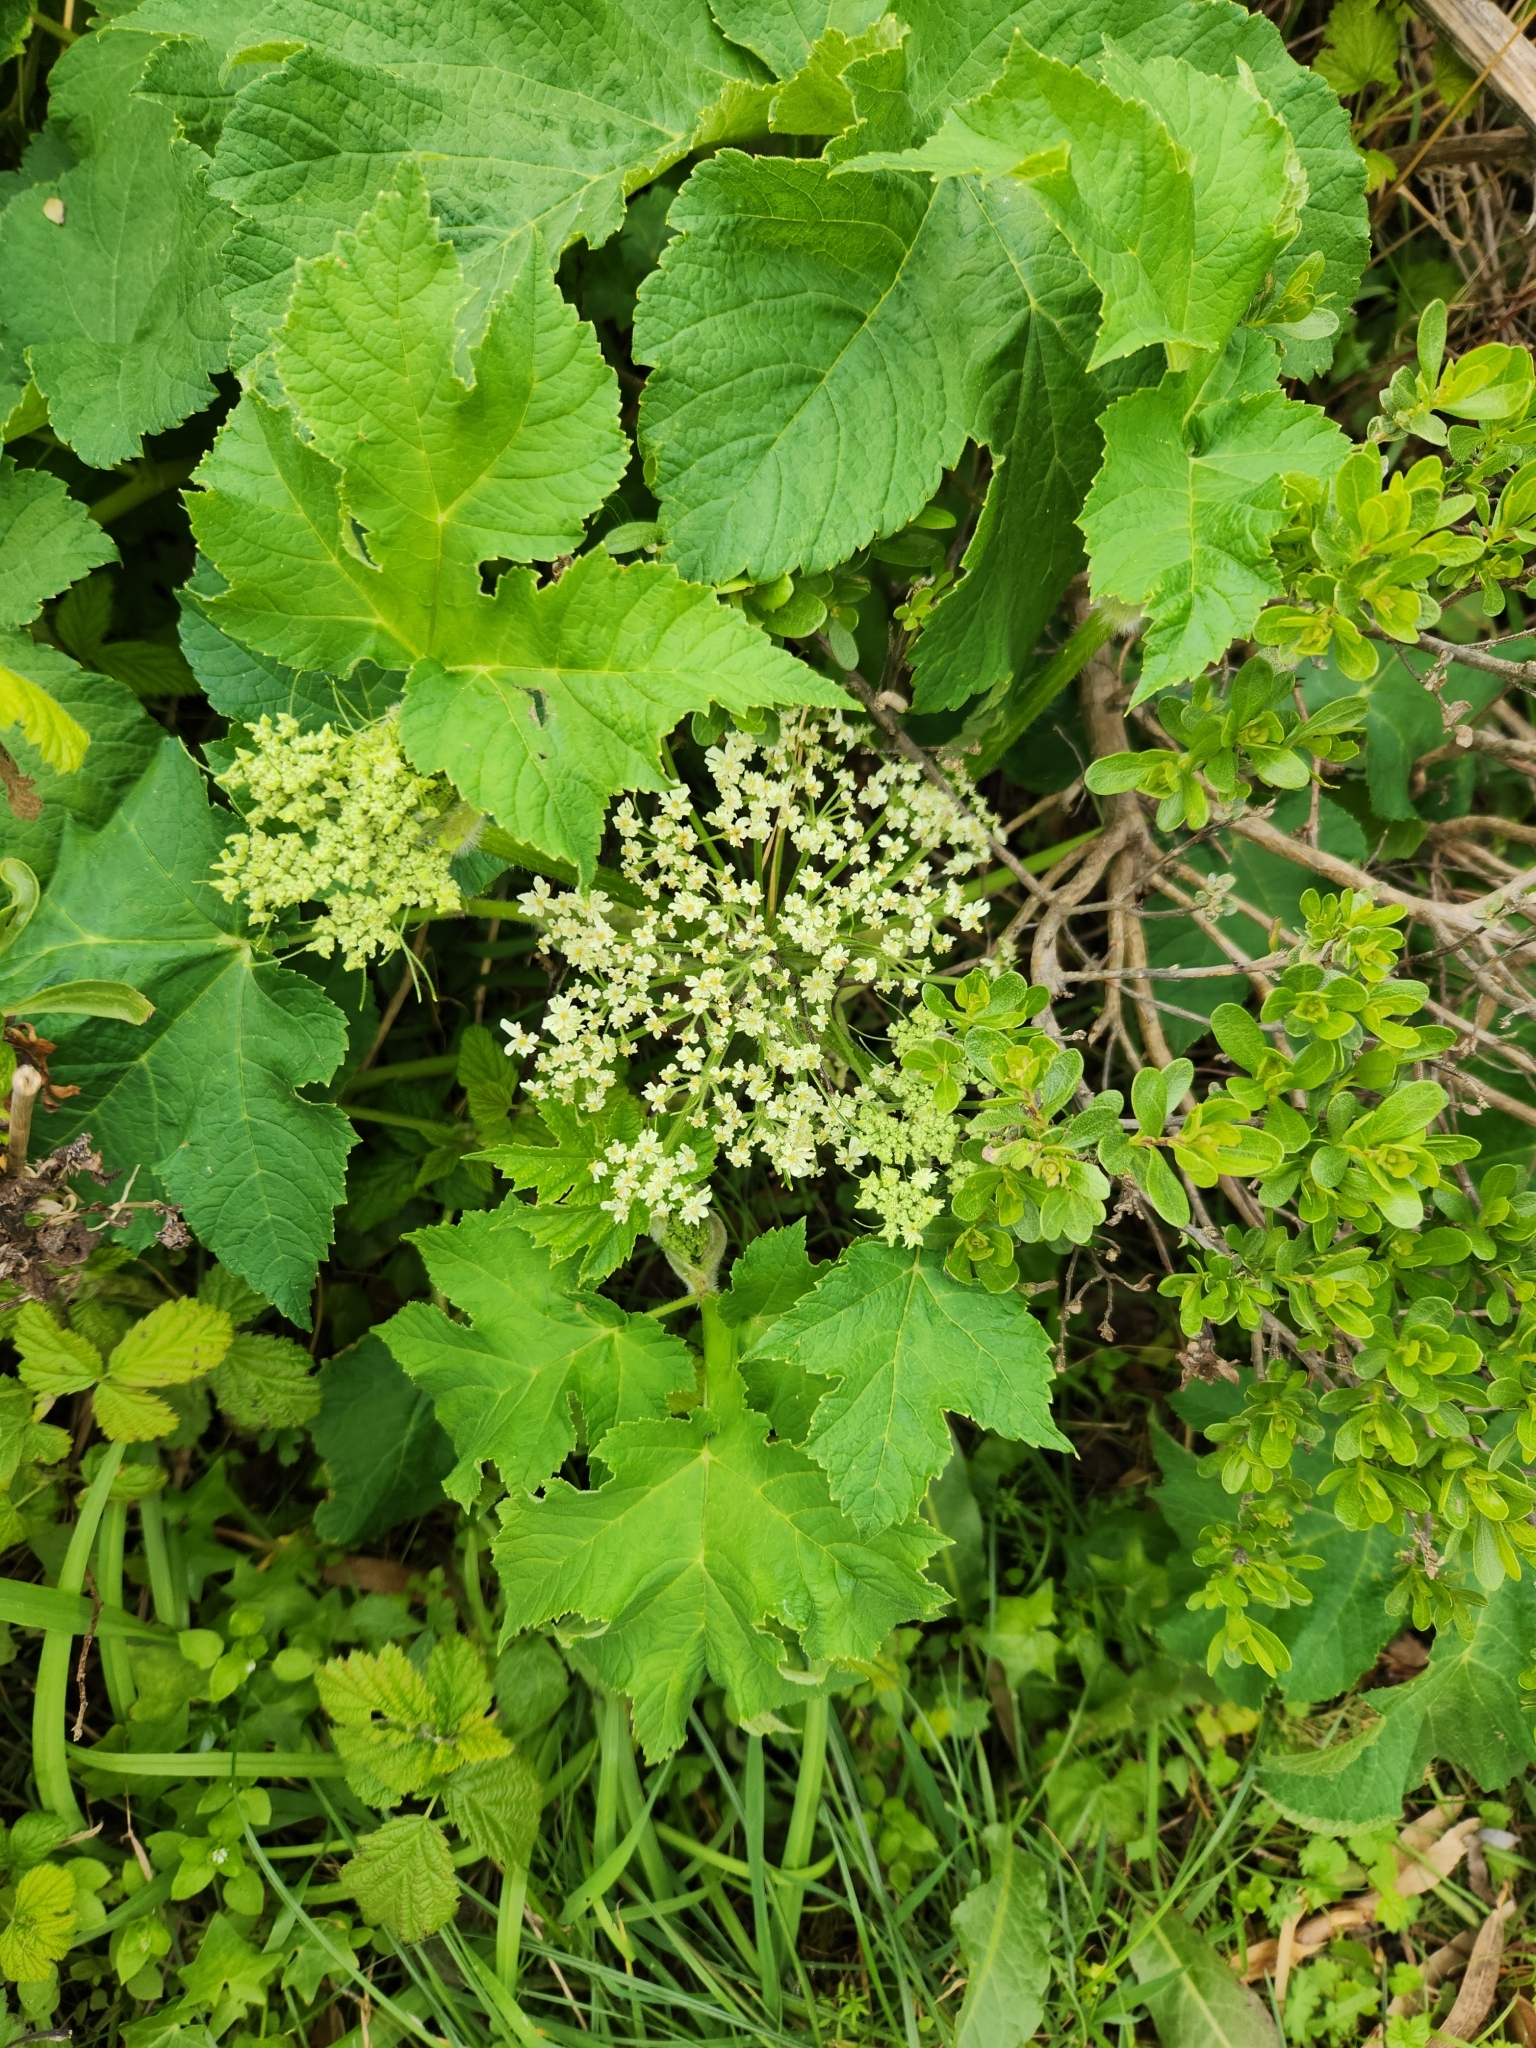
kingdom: Plantae
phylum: Tracheophyta
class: Magnoliopsida
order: Apiales
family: Apiaceae
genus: Heracleum
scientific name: Heracleum maximum
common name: American cow parsnip
